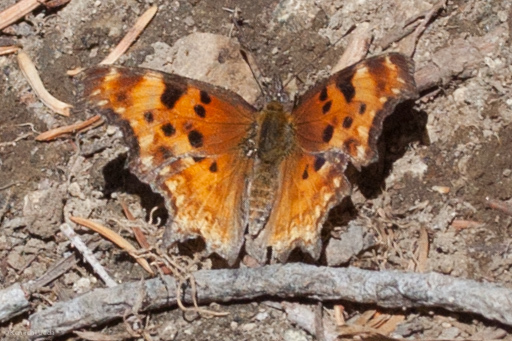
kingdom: Animalia
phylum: Arthropoda
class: Insecta
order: Lepidoptera
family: Nymphalidae
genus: Polygonia
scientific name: Polygonia gracilis
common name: Hoary comma
